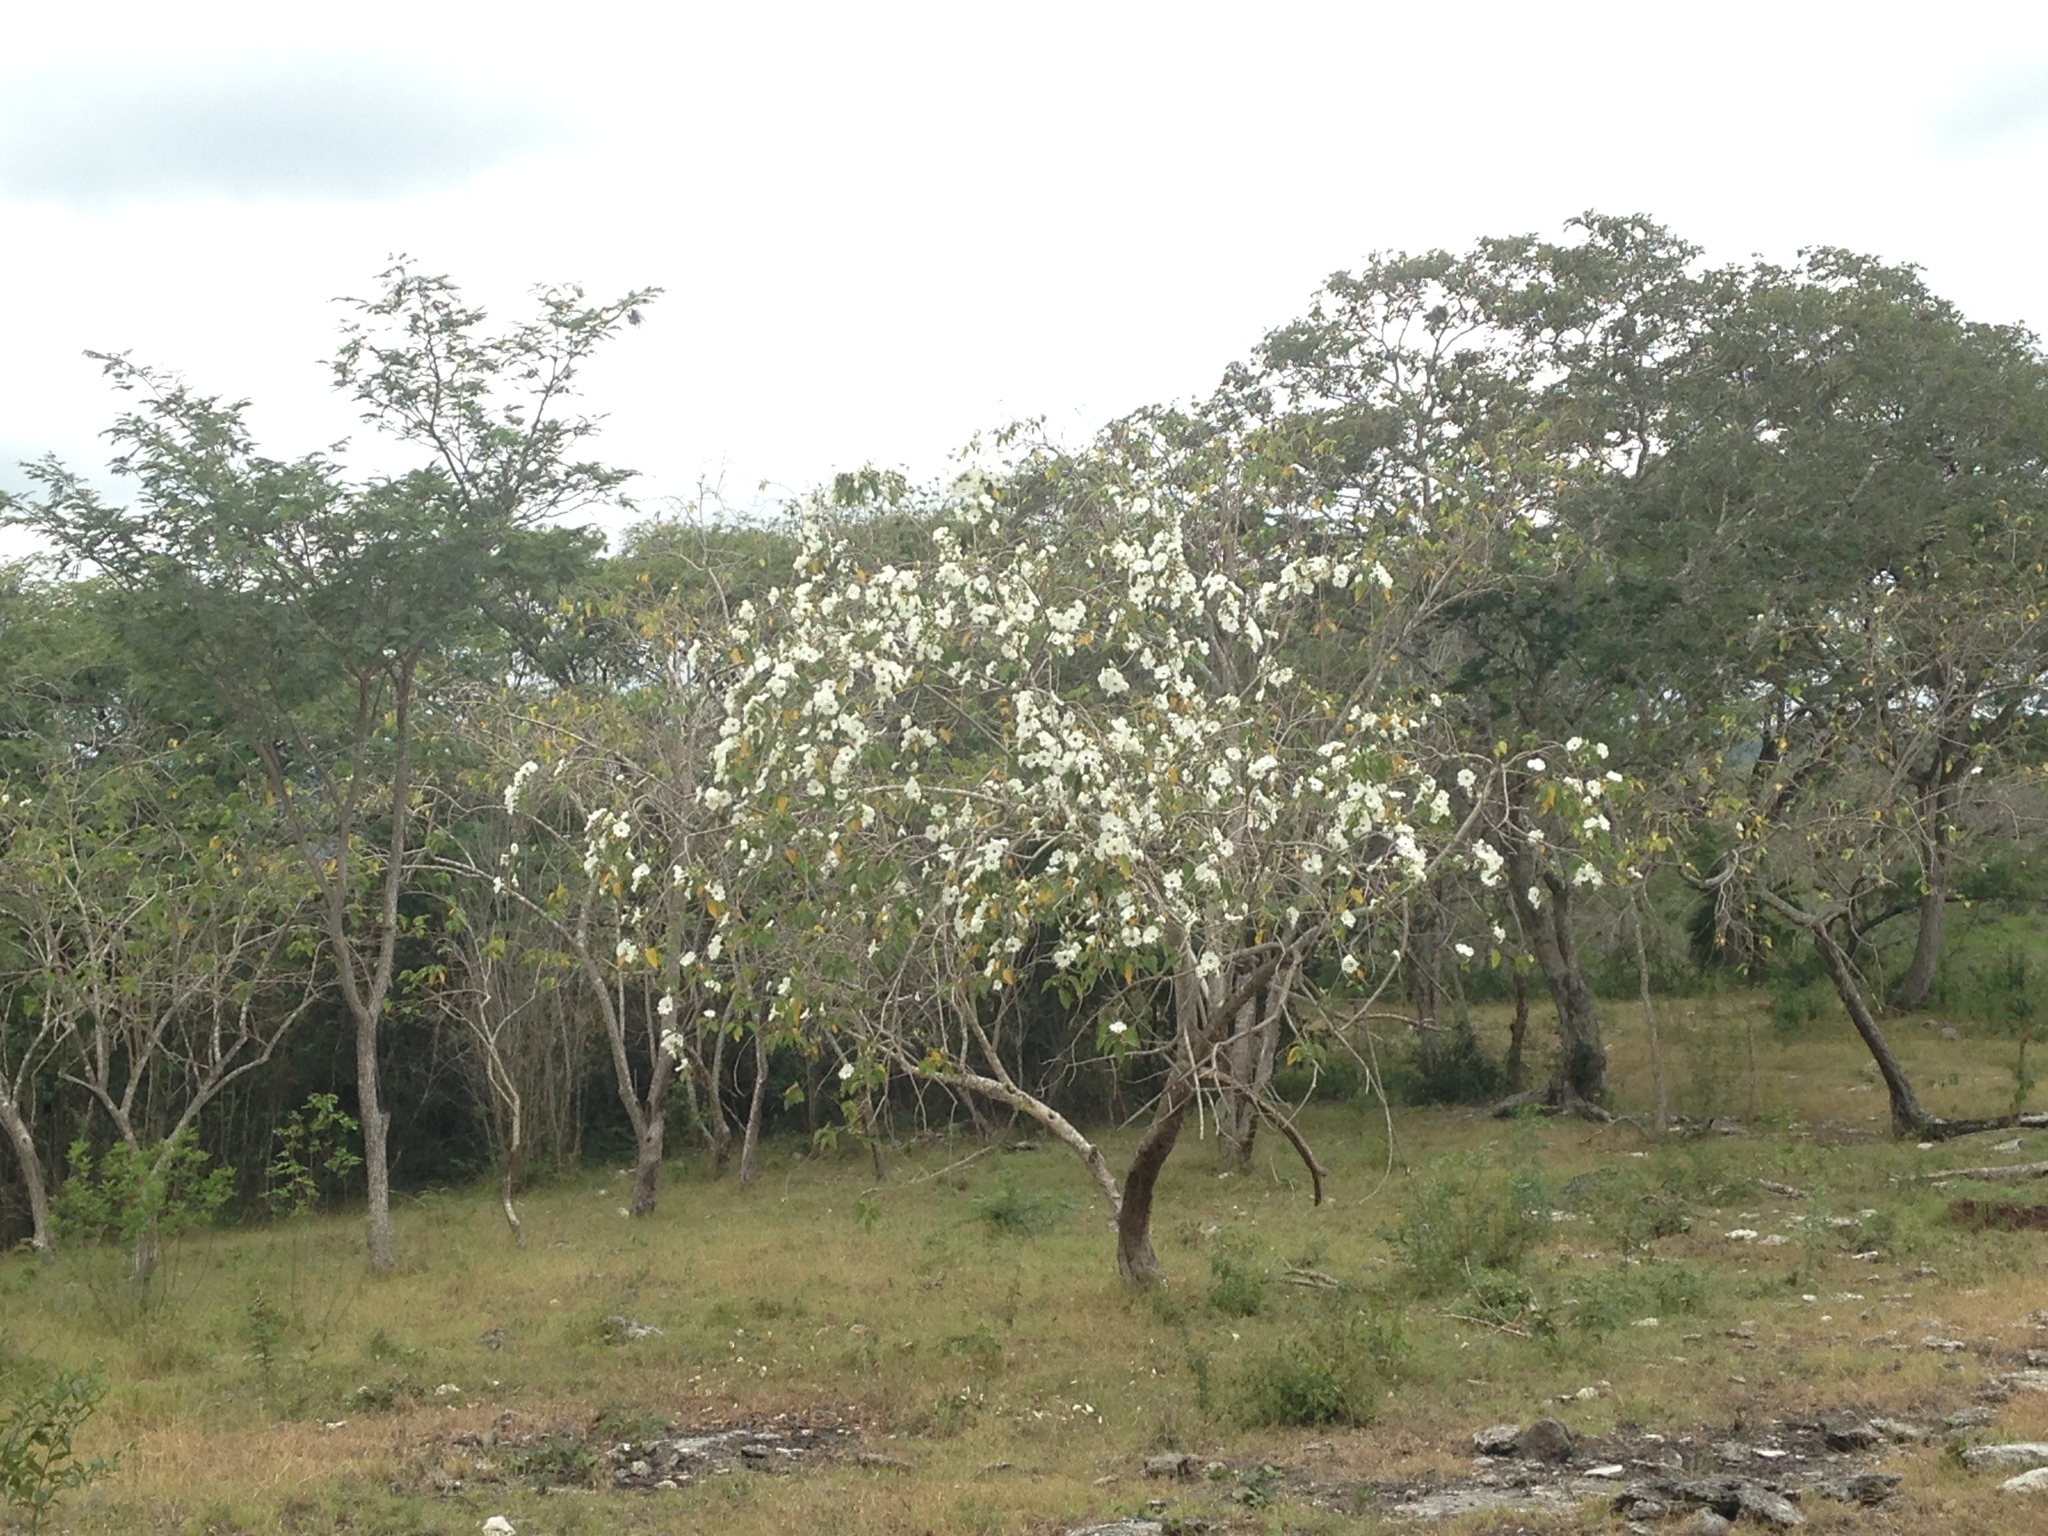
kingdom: Plantae
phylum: Tracheophyta
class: Magnoliopsida
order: Solanales
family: Convolvulaceae
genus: Ipomoea
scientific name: Ipomoea pauciflora
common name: Tree morningglory
